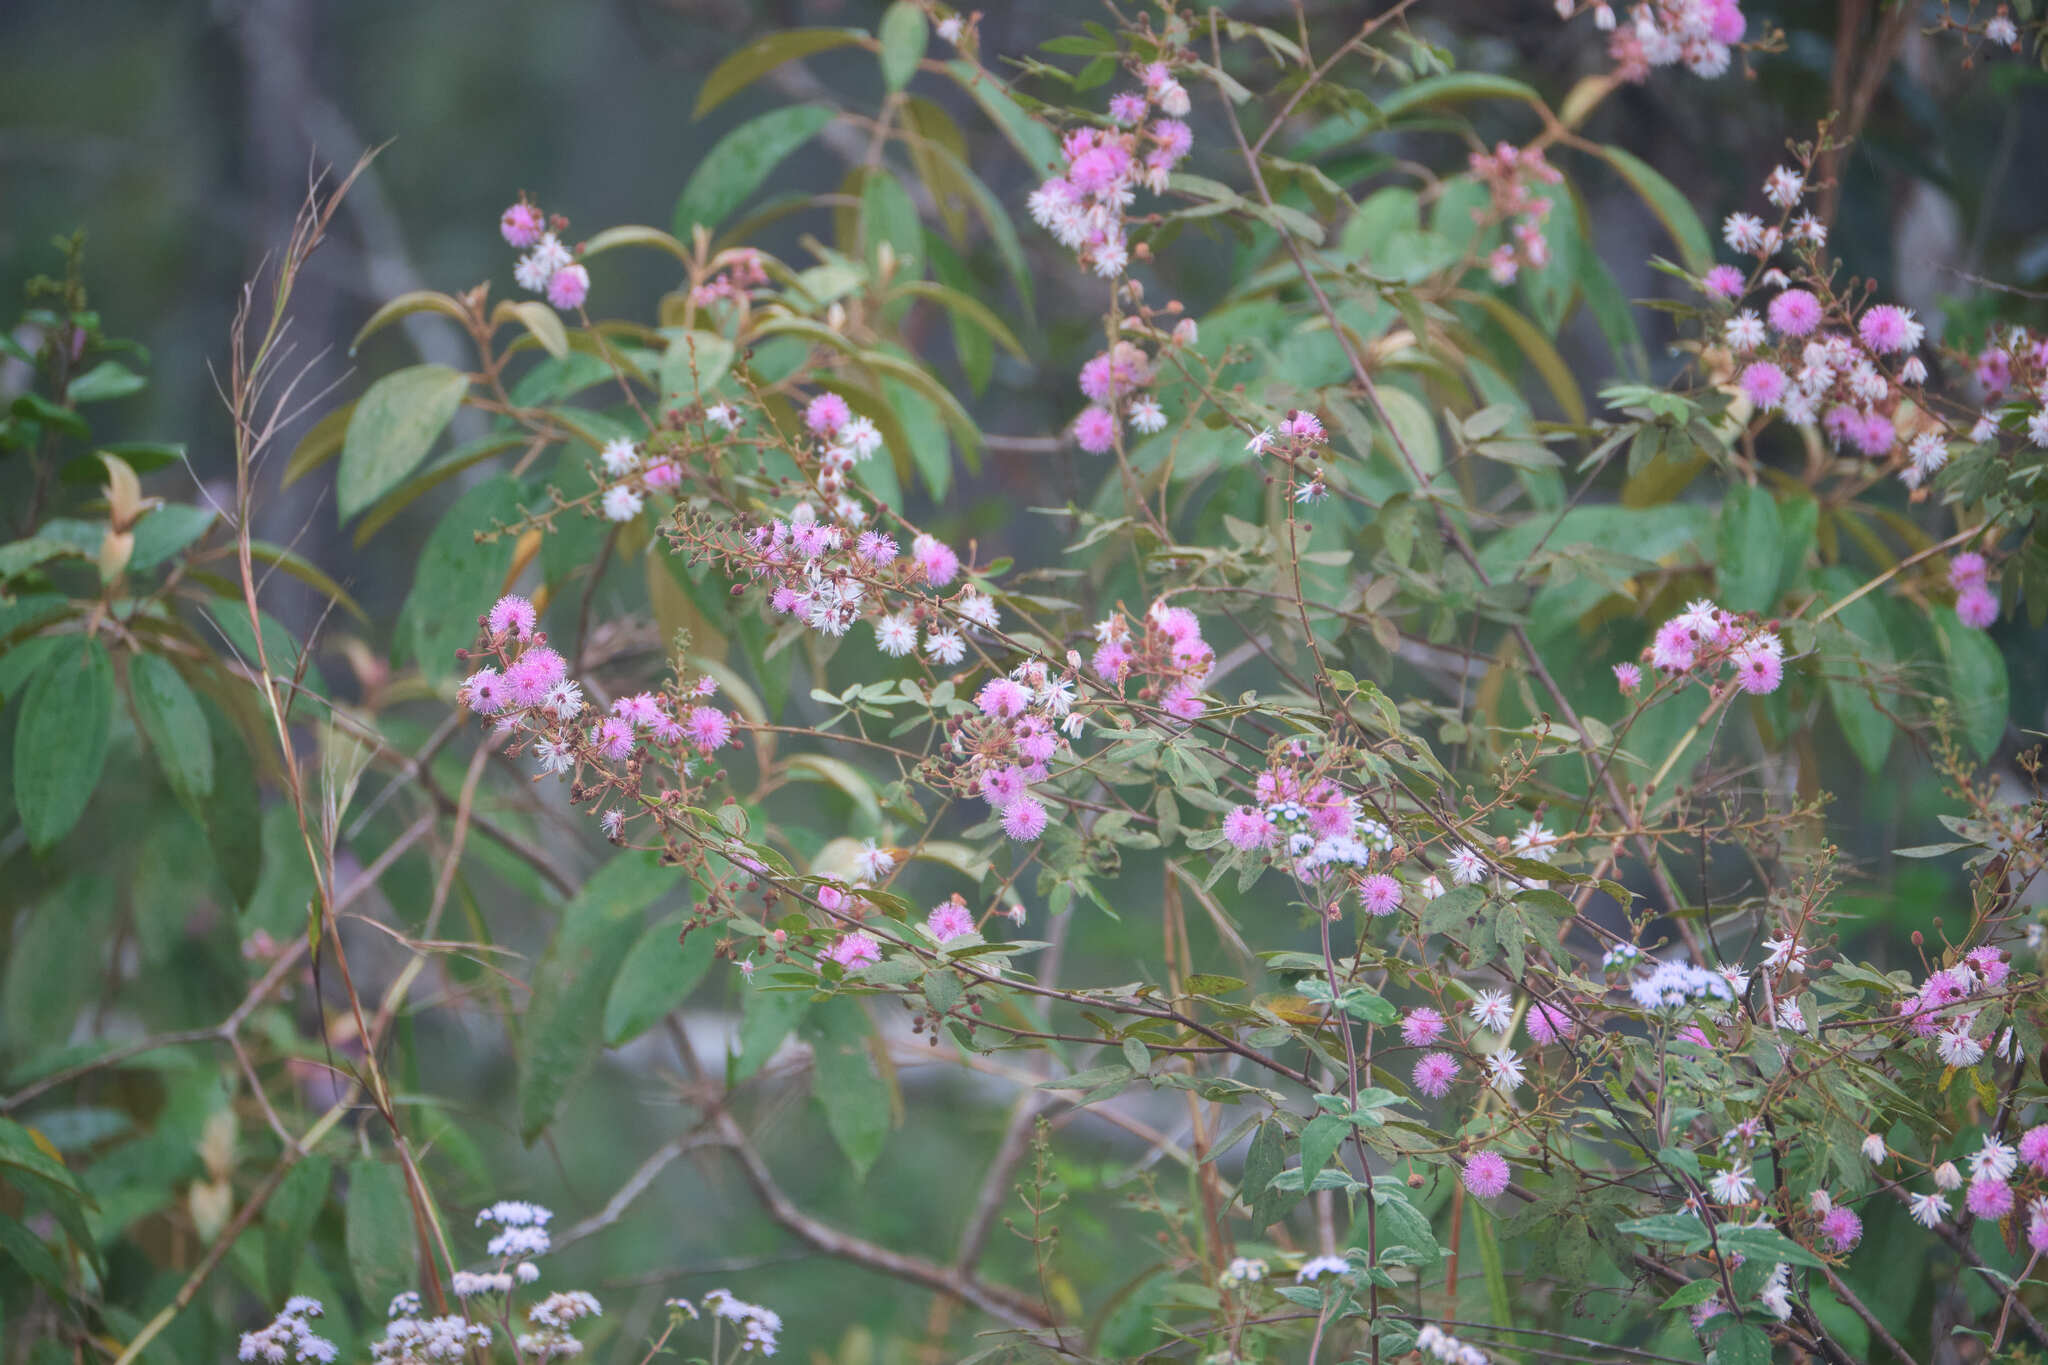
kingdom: Plantae
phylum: Tracheophyta
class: Magnoliopsida
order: Fabales
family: Fabaceae
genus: Mimosa
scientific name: Mimosa albida
